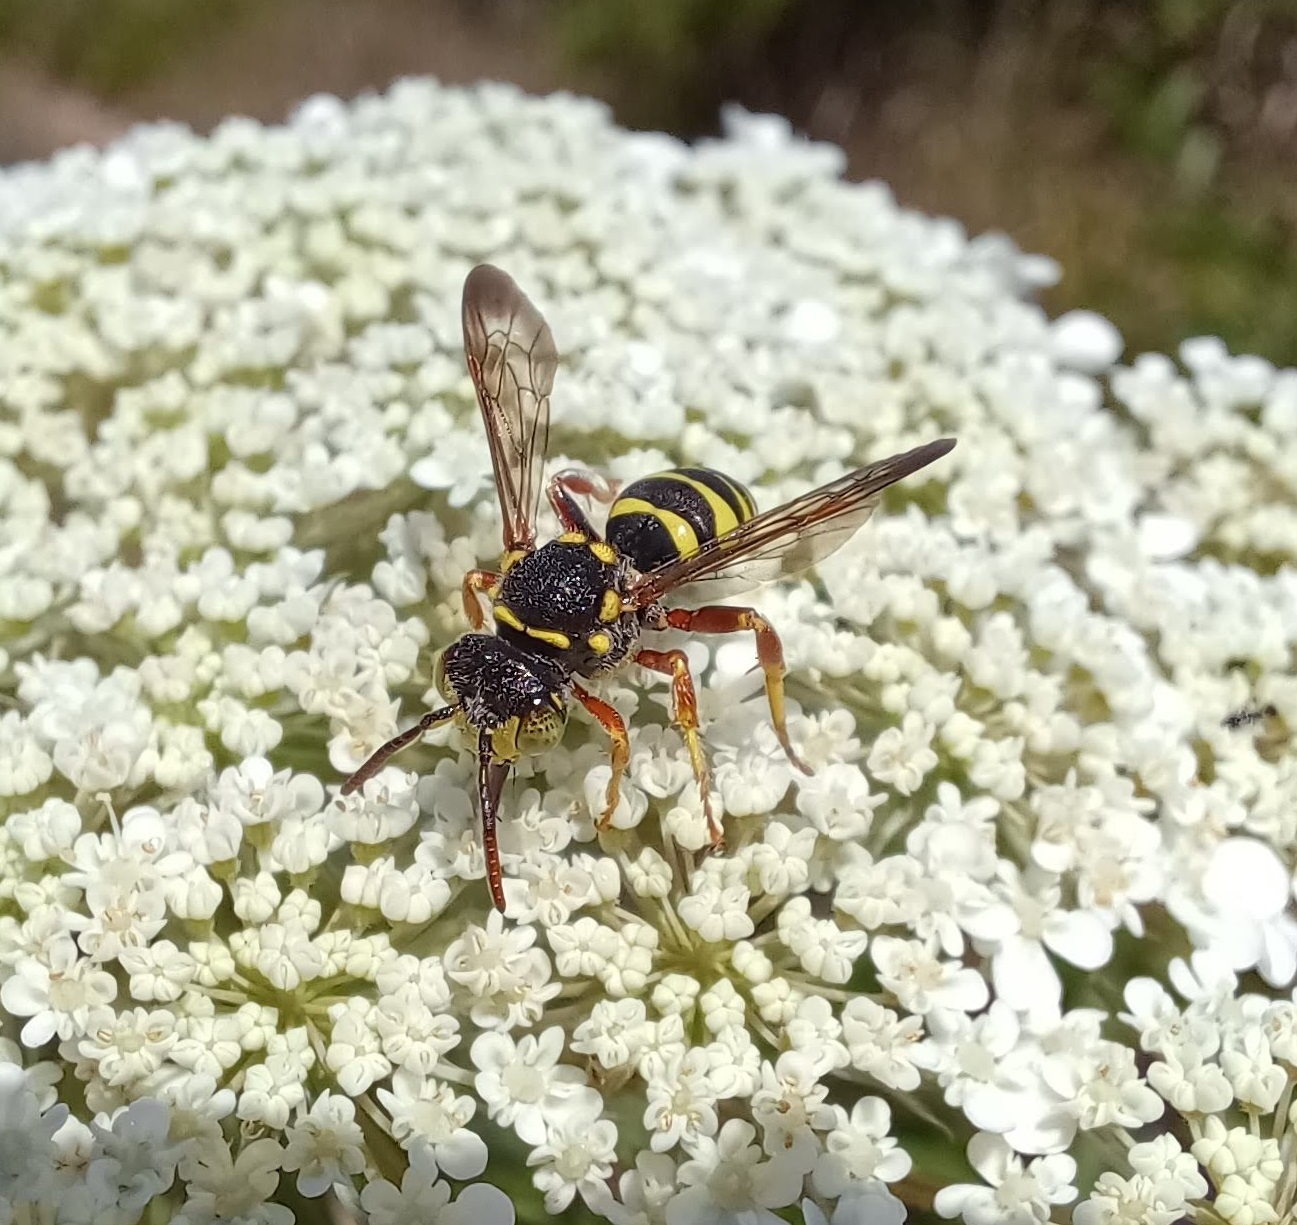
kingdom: Animalia
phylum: Arthropoda
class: Insecta
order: Hymenoptera
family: Apidae
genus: Nomada
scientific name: Nomada vegana
